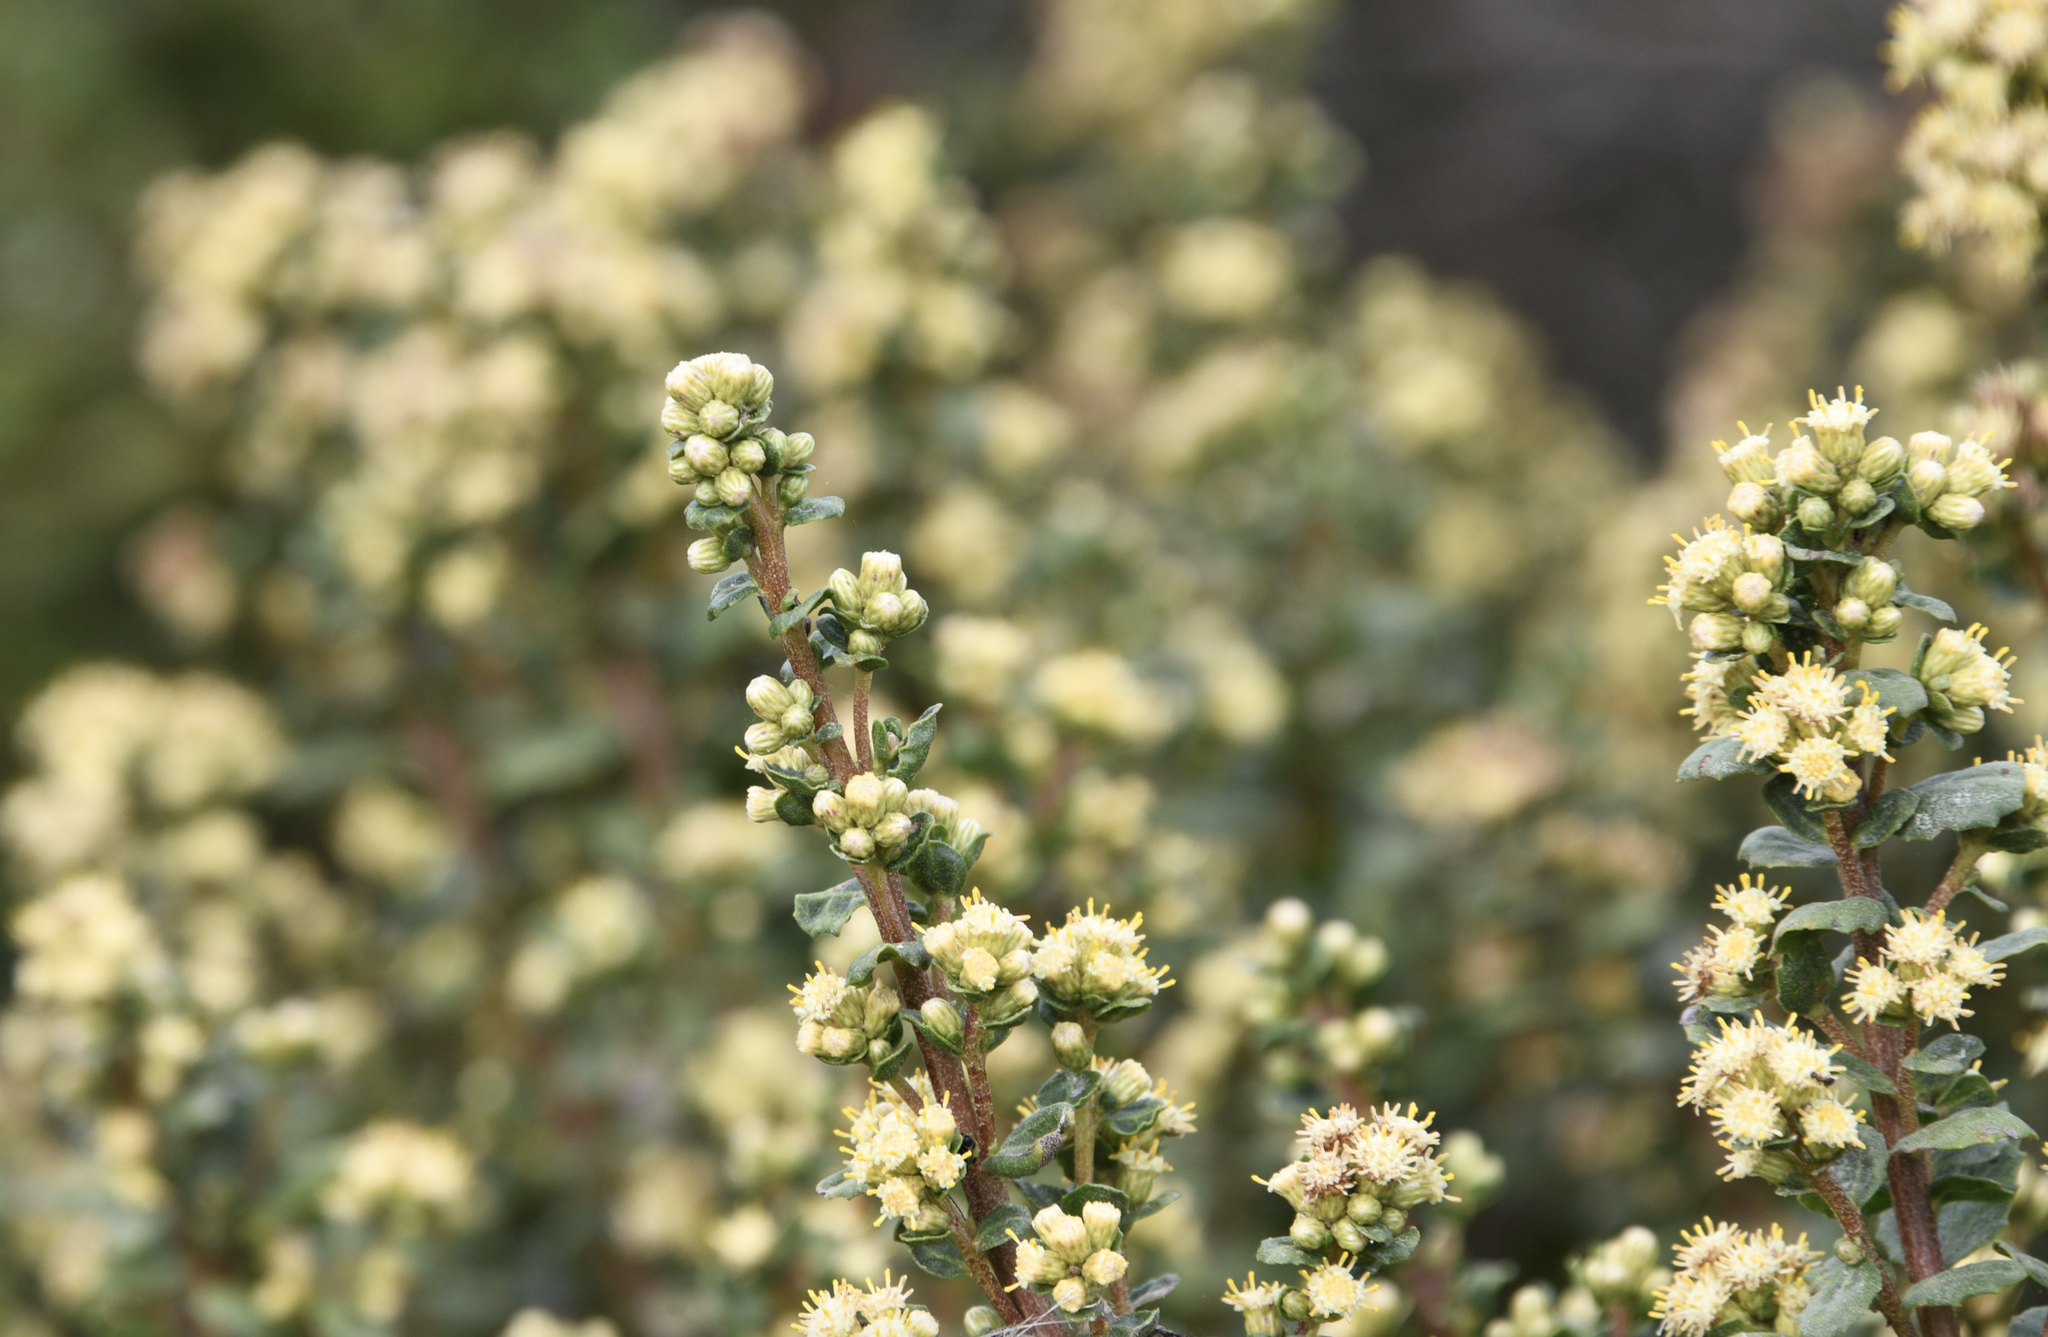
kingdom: Plantae
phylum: Tracheophyta
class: Magnoliopsida
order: Asterales
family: Asteraceae
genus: Baccharis
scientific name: Baccharis pilularis
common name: Coyotebrush
